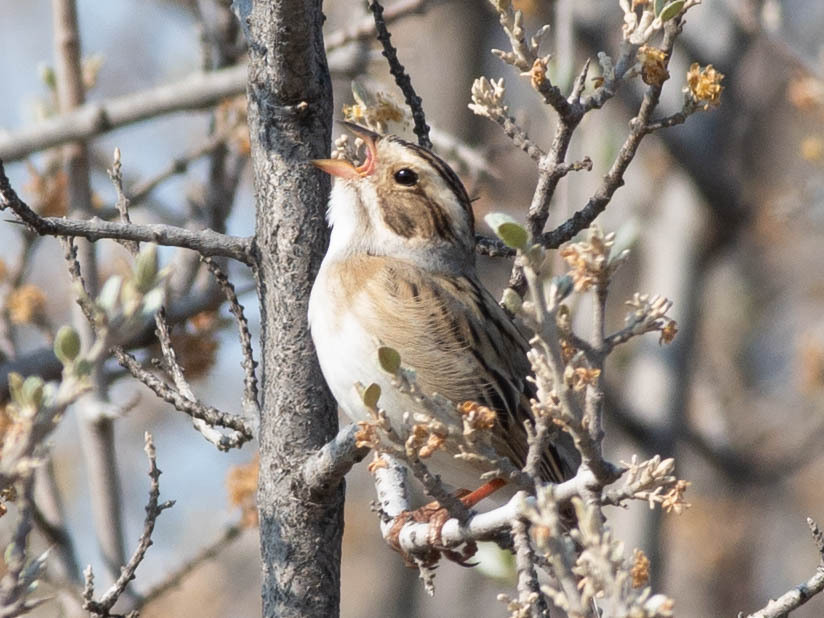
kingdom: Animalia
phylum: Chordata
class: Aves
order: Passeriformes
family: Passerellidae
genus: Spizella
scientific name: Spizella pallida
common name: Clay-colored sparrow
